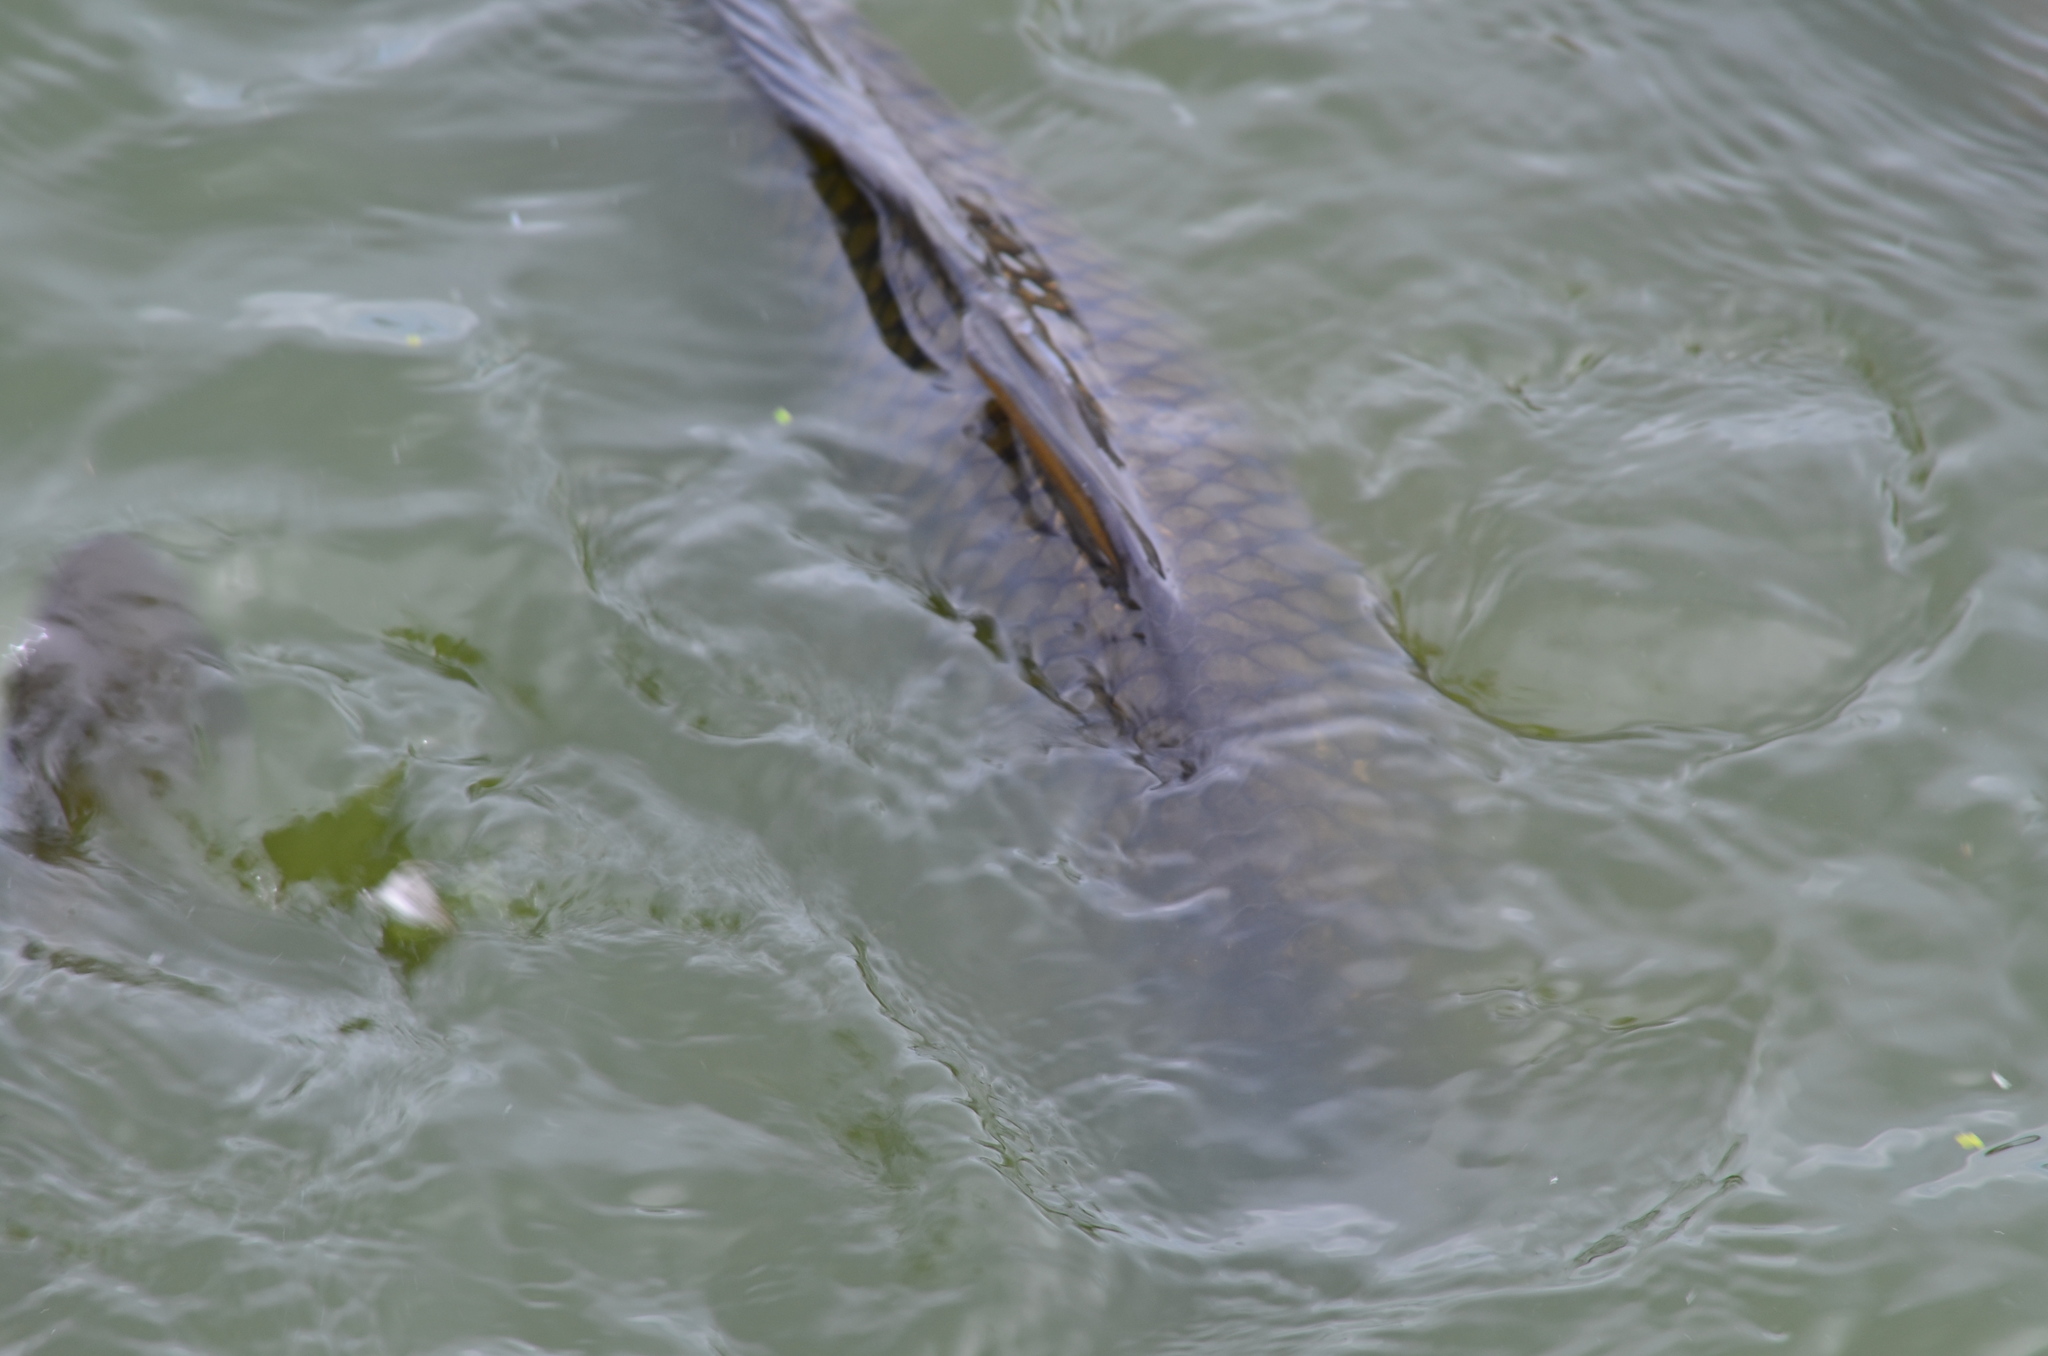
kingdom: Animalia
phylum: Chordata
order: Cypriniformes
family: Cyprinidae
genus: Cyprinus
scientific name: Cyprinus carpio
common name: Common carp
